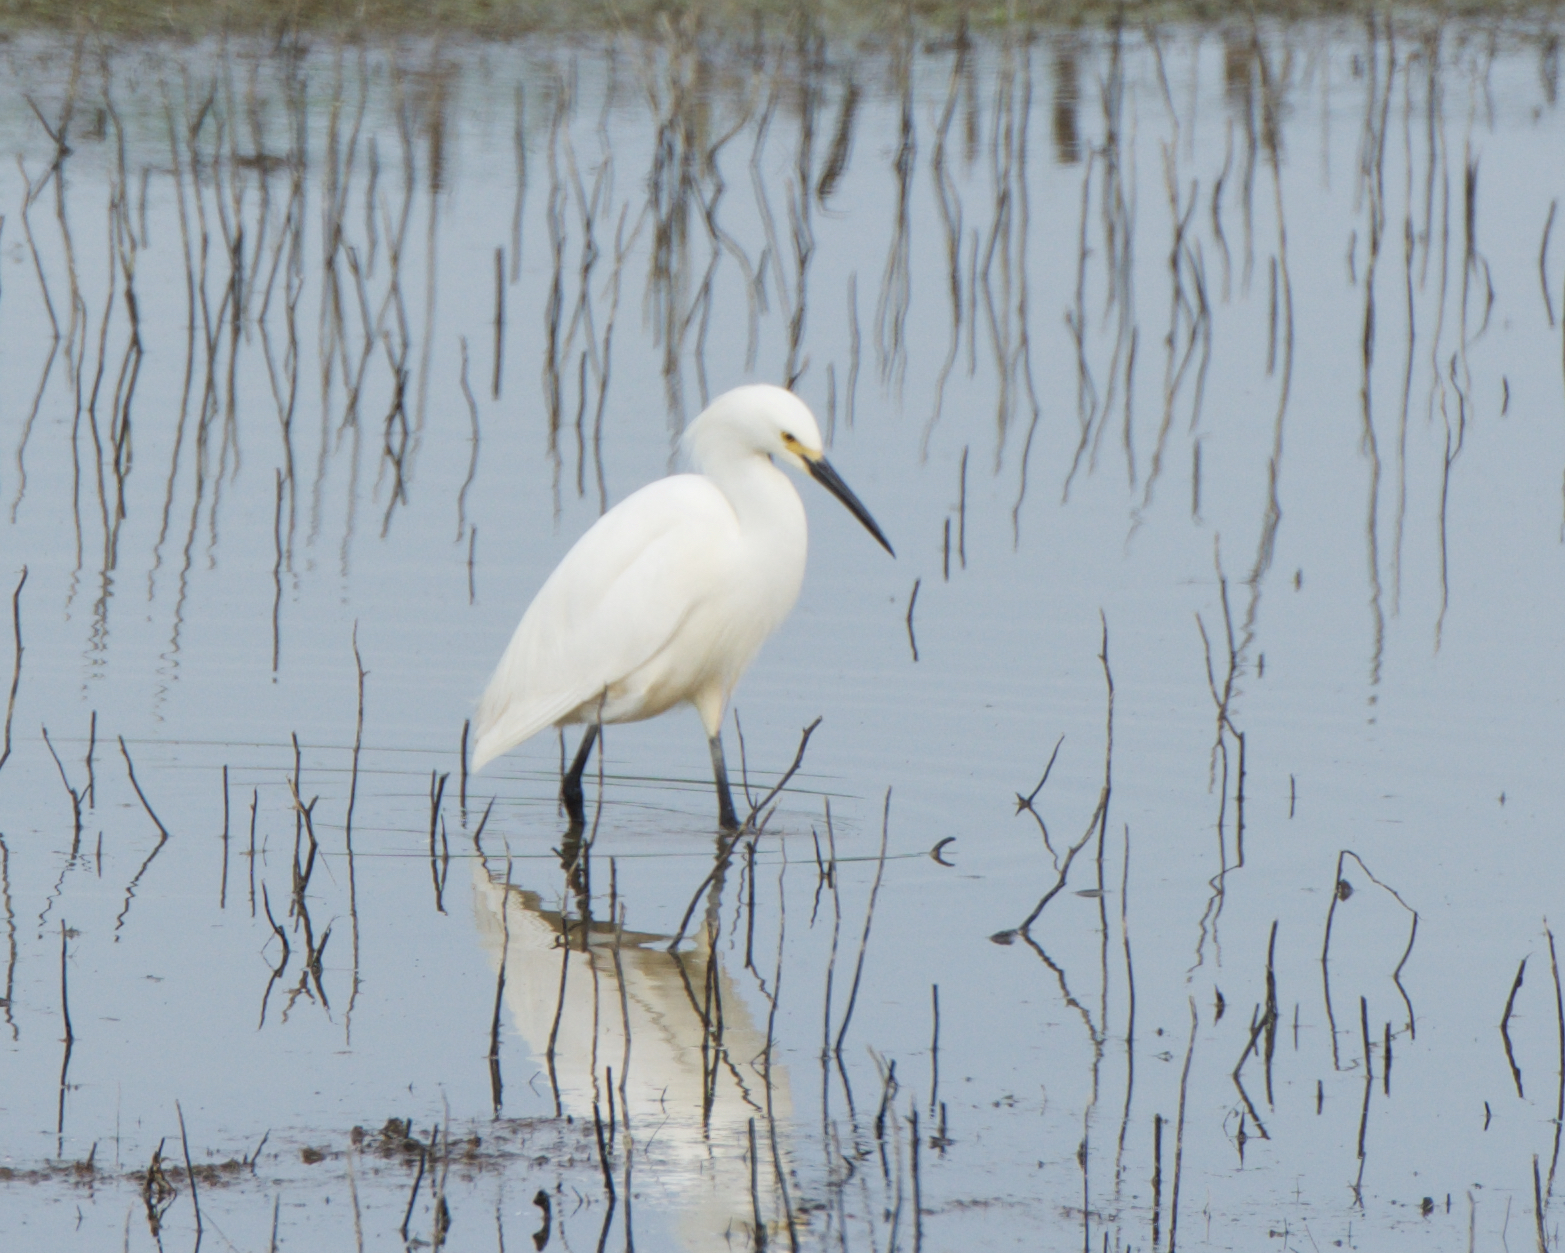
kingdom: Animalia
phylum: Chordata
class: Aves
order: Pelecaniformes
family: Ardeidae
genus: Egretta
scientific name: Egretta thula
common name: Snowy egret
